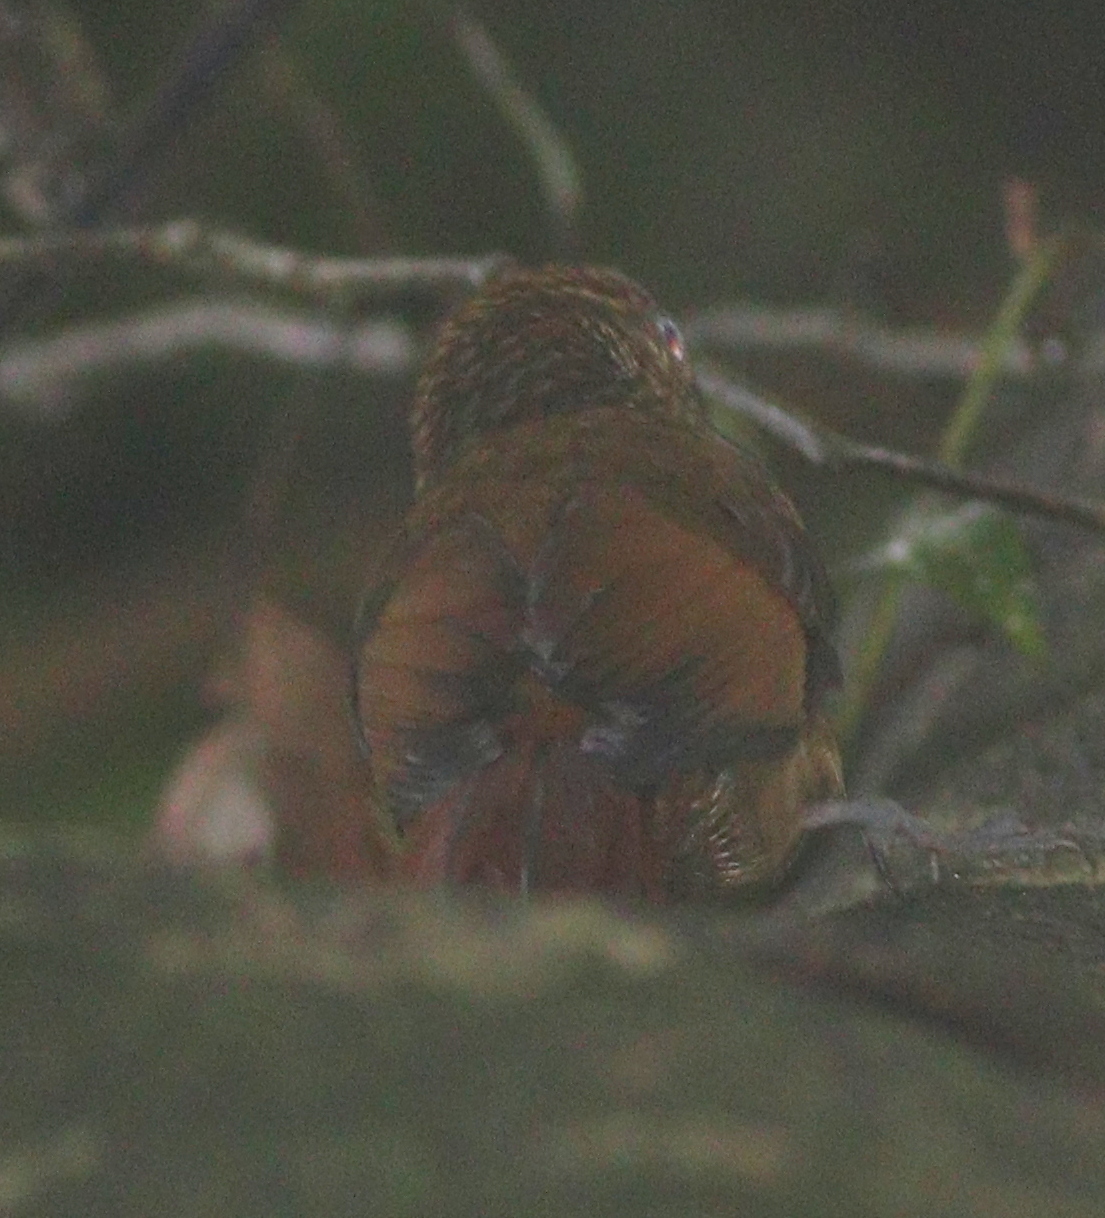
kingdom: Animalia
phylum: Chordata
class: Aves
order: Passeriformes
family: Furnariidae
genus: Dendrocincla
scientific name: Dendrocincla anabatina
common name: Tawny-winged woodcreeper
